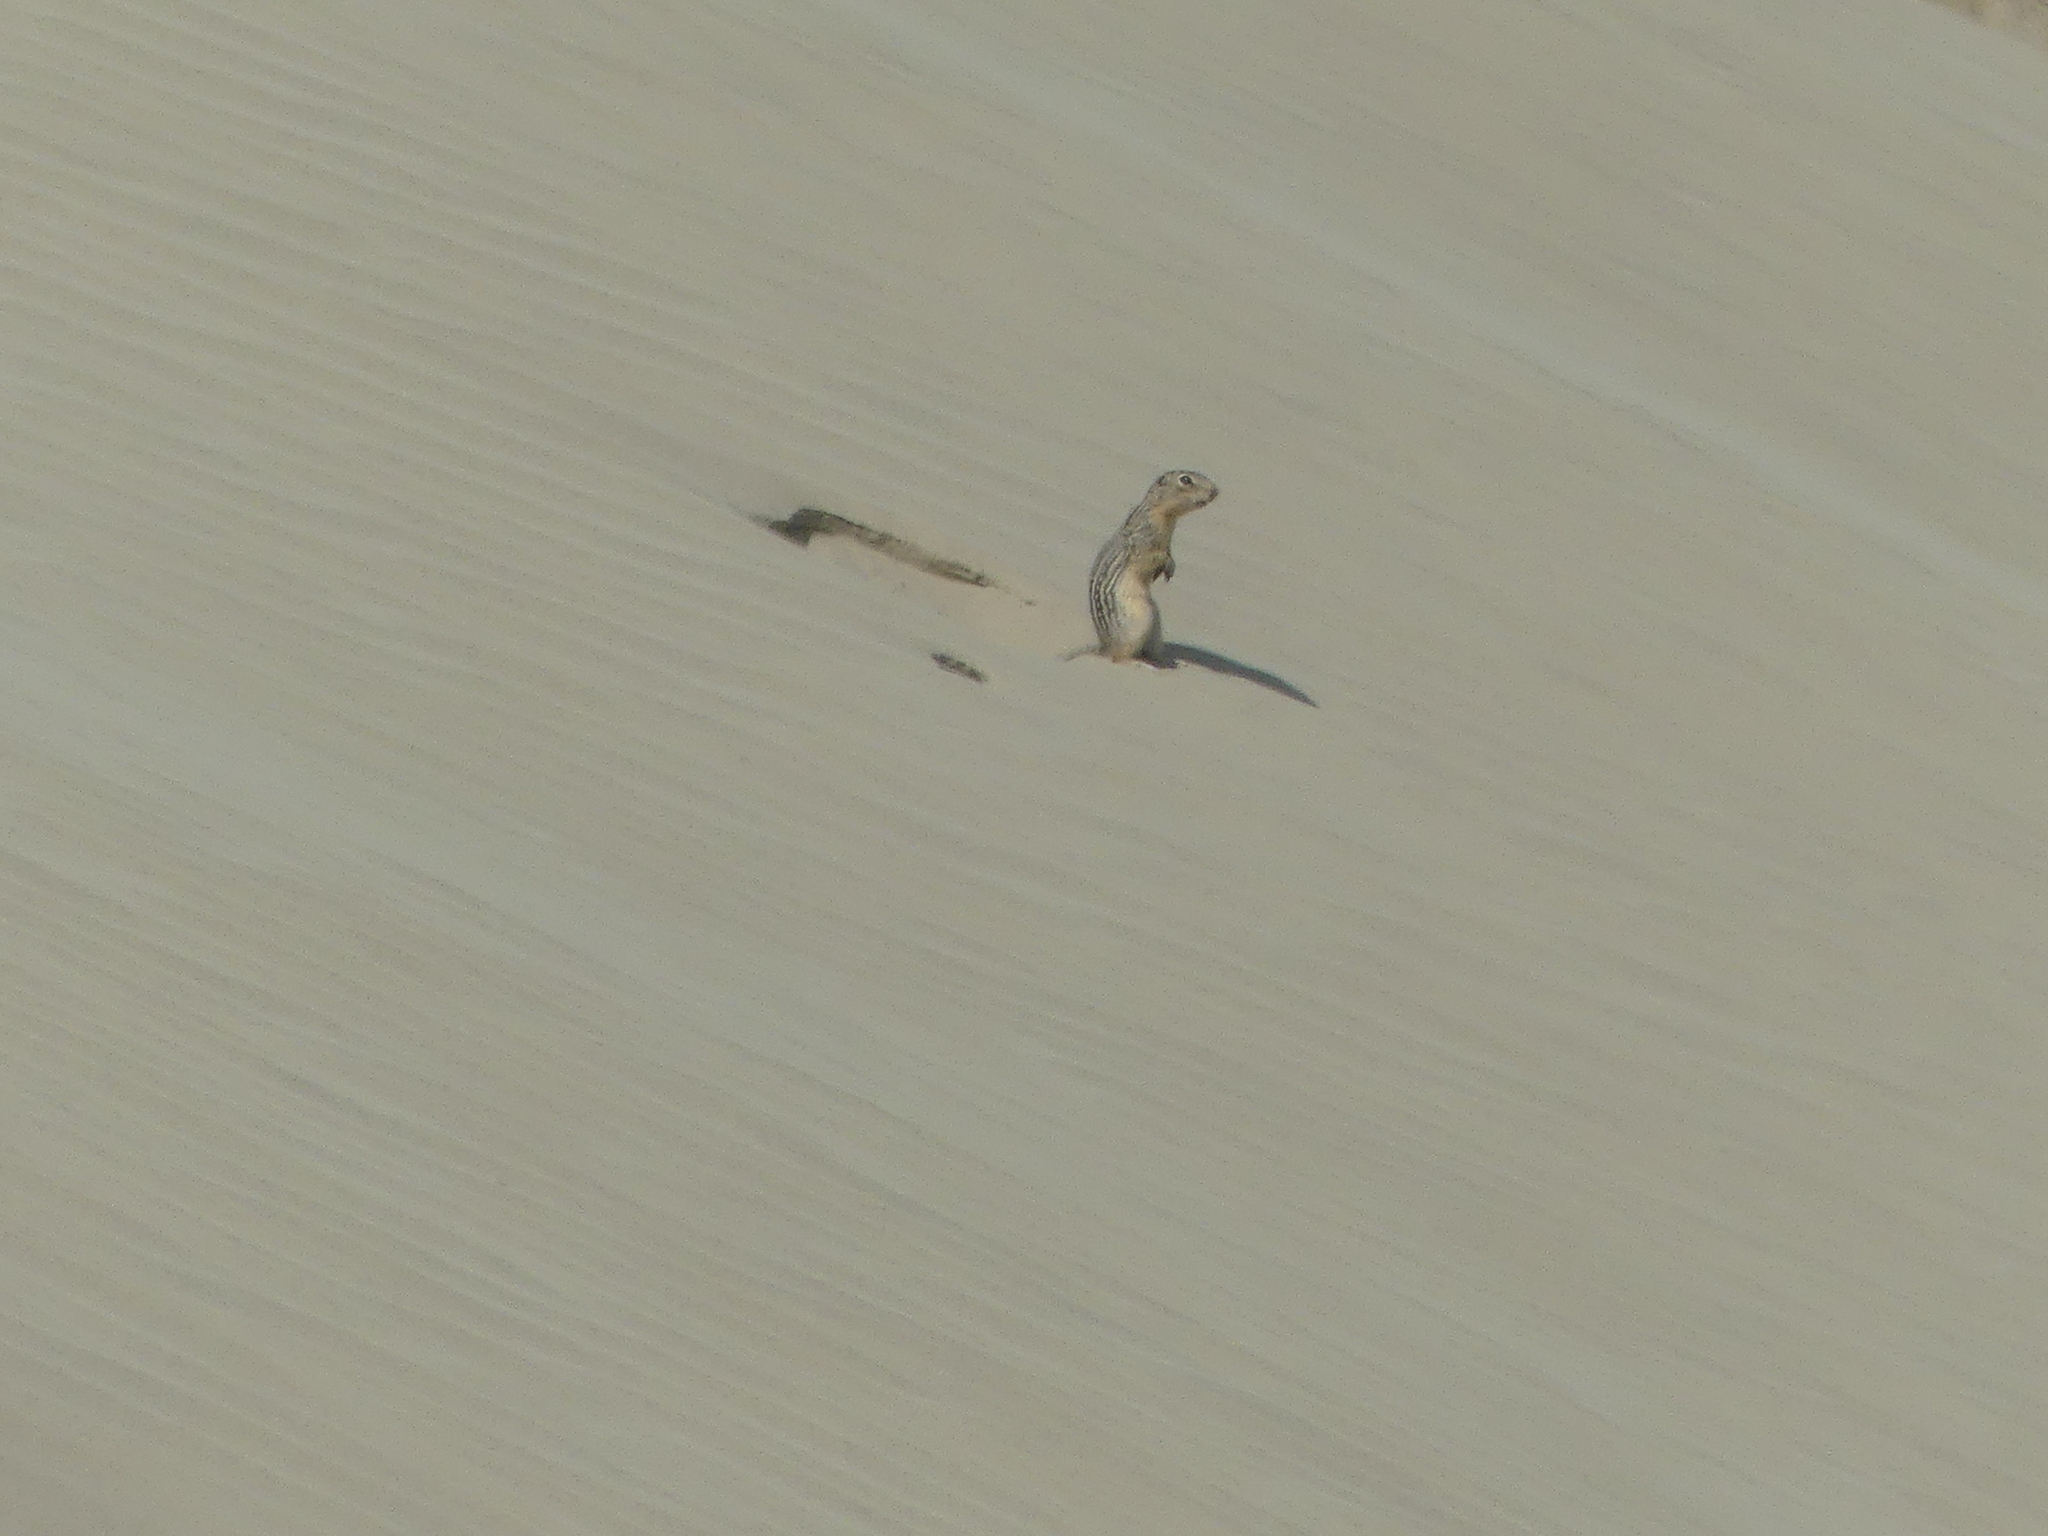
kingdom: Animalia
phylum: Chordata
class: Mammalia
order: Rodentia
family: Sciuridae
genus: Ictidomys
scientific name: Ictidomys tridecemlineatus
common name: Thirteen-lined ground squirrel
